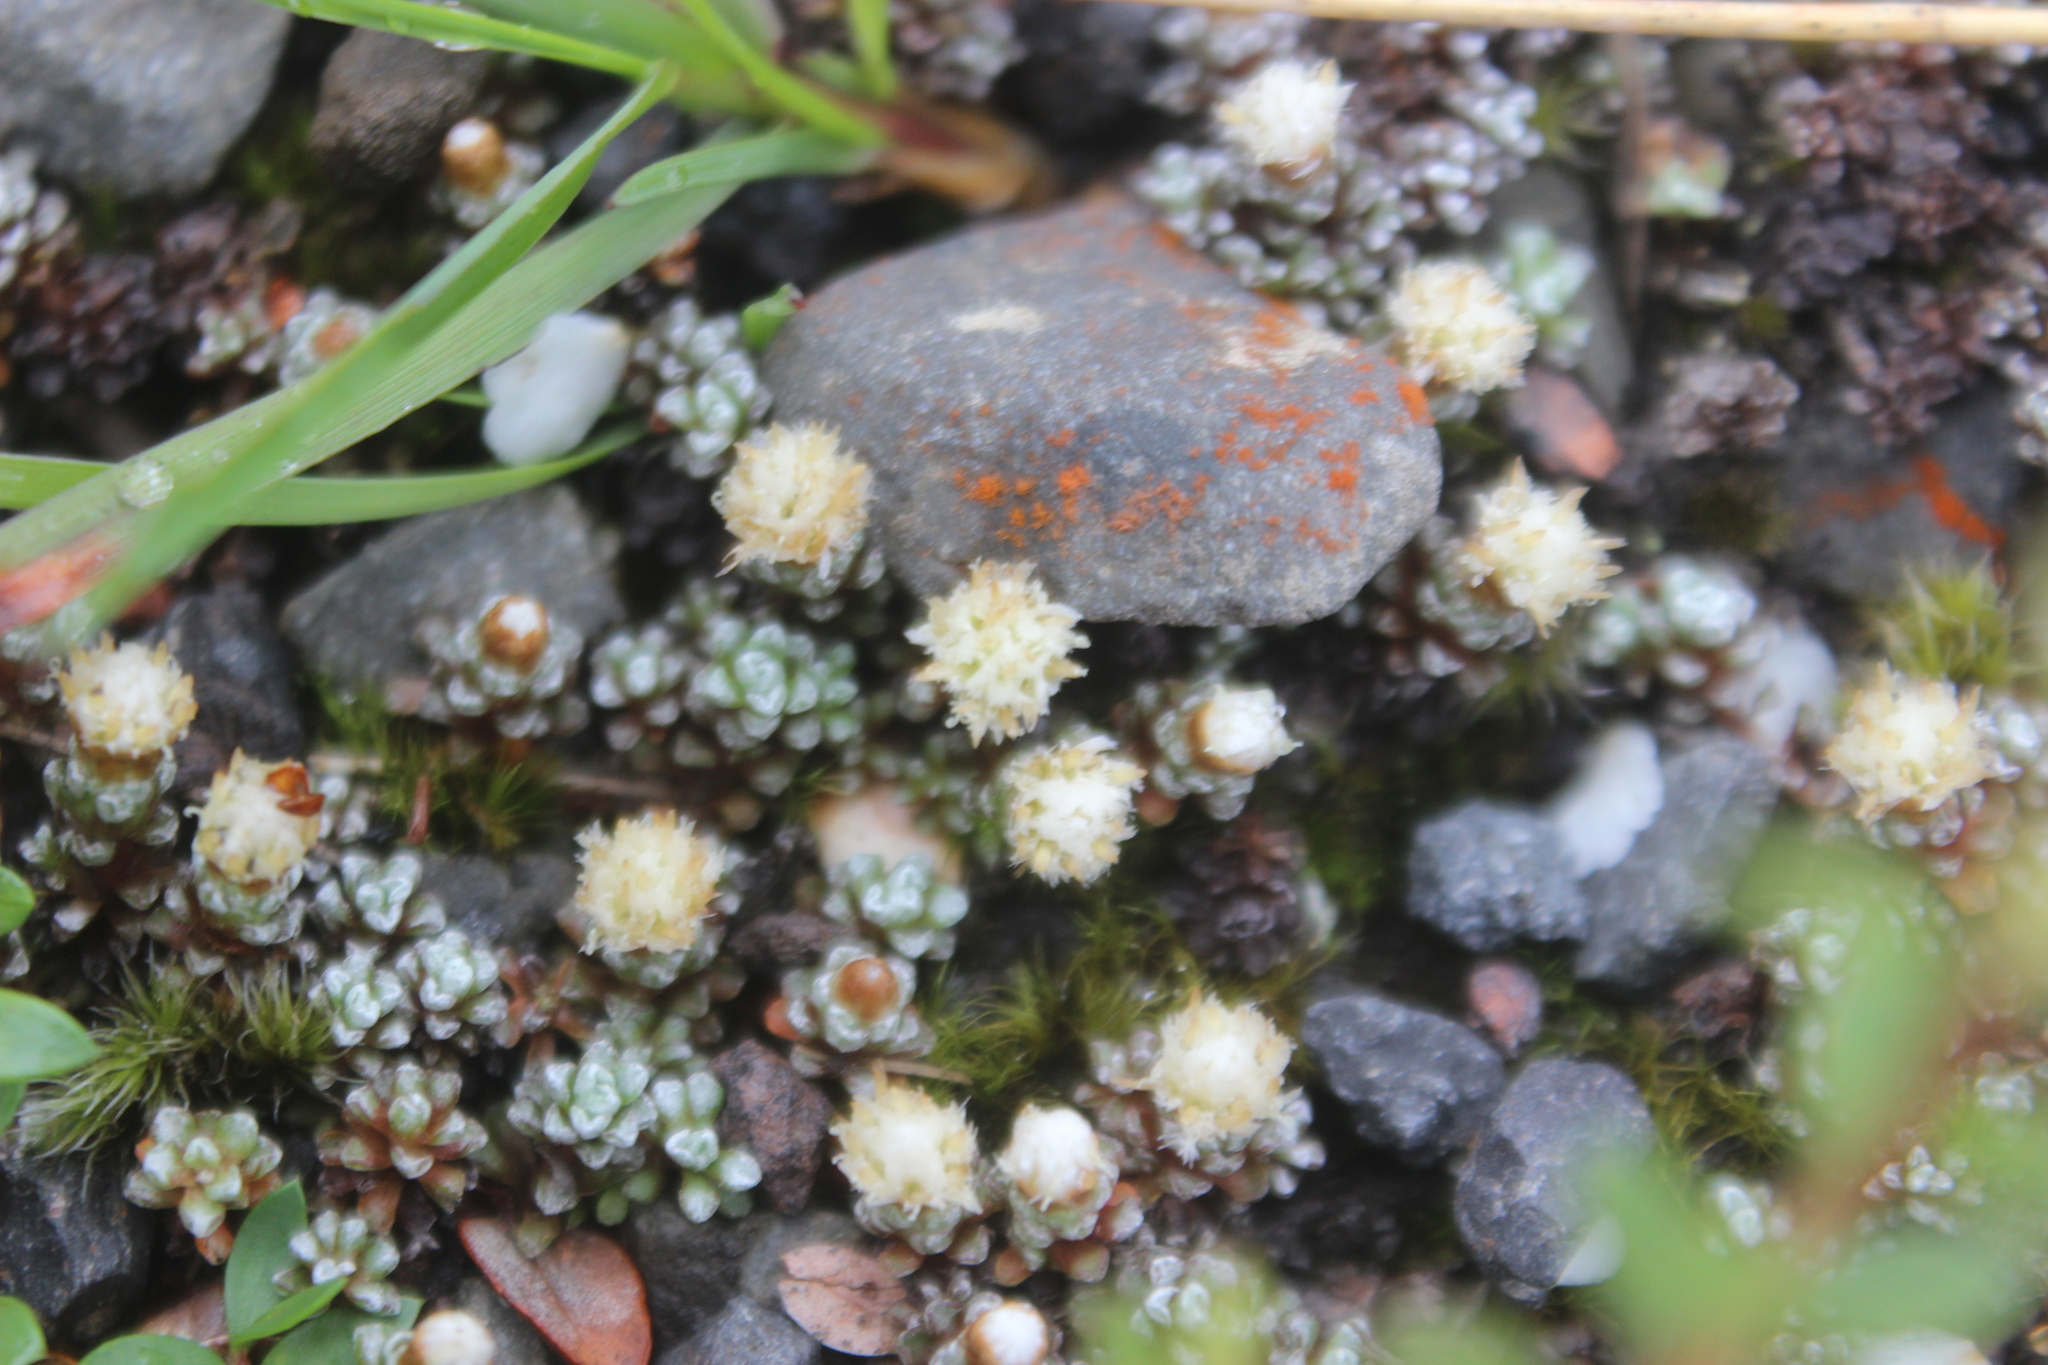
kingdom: Plantae
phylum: Tracheophyta
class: Magnoliopsida
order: Asterales
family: Asteraceae
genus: Raoulia
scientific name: Raoulia albosericea
